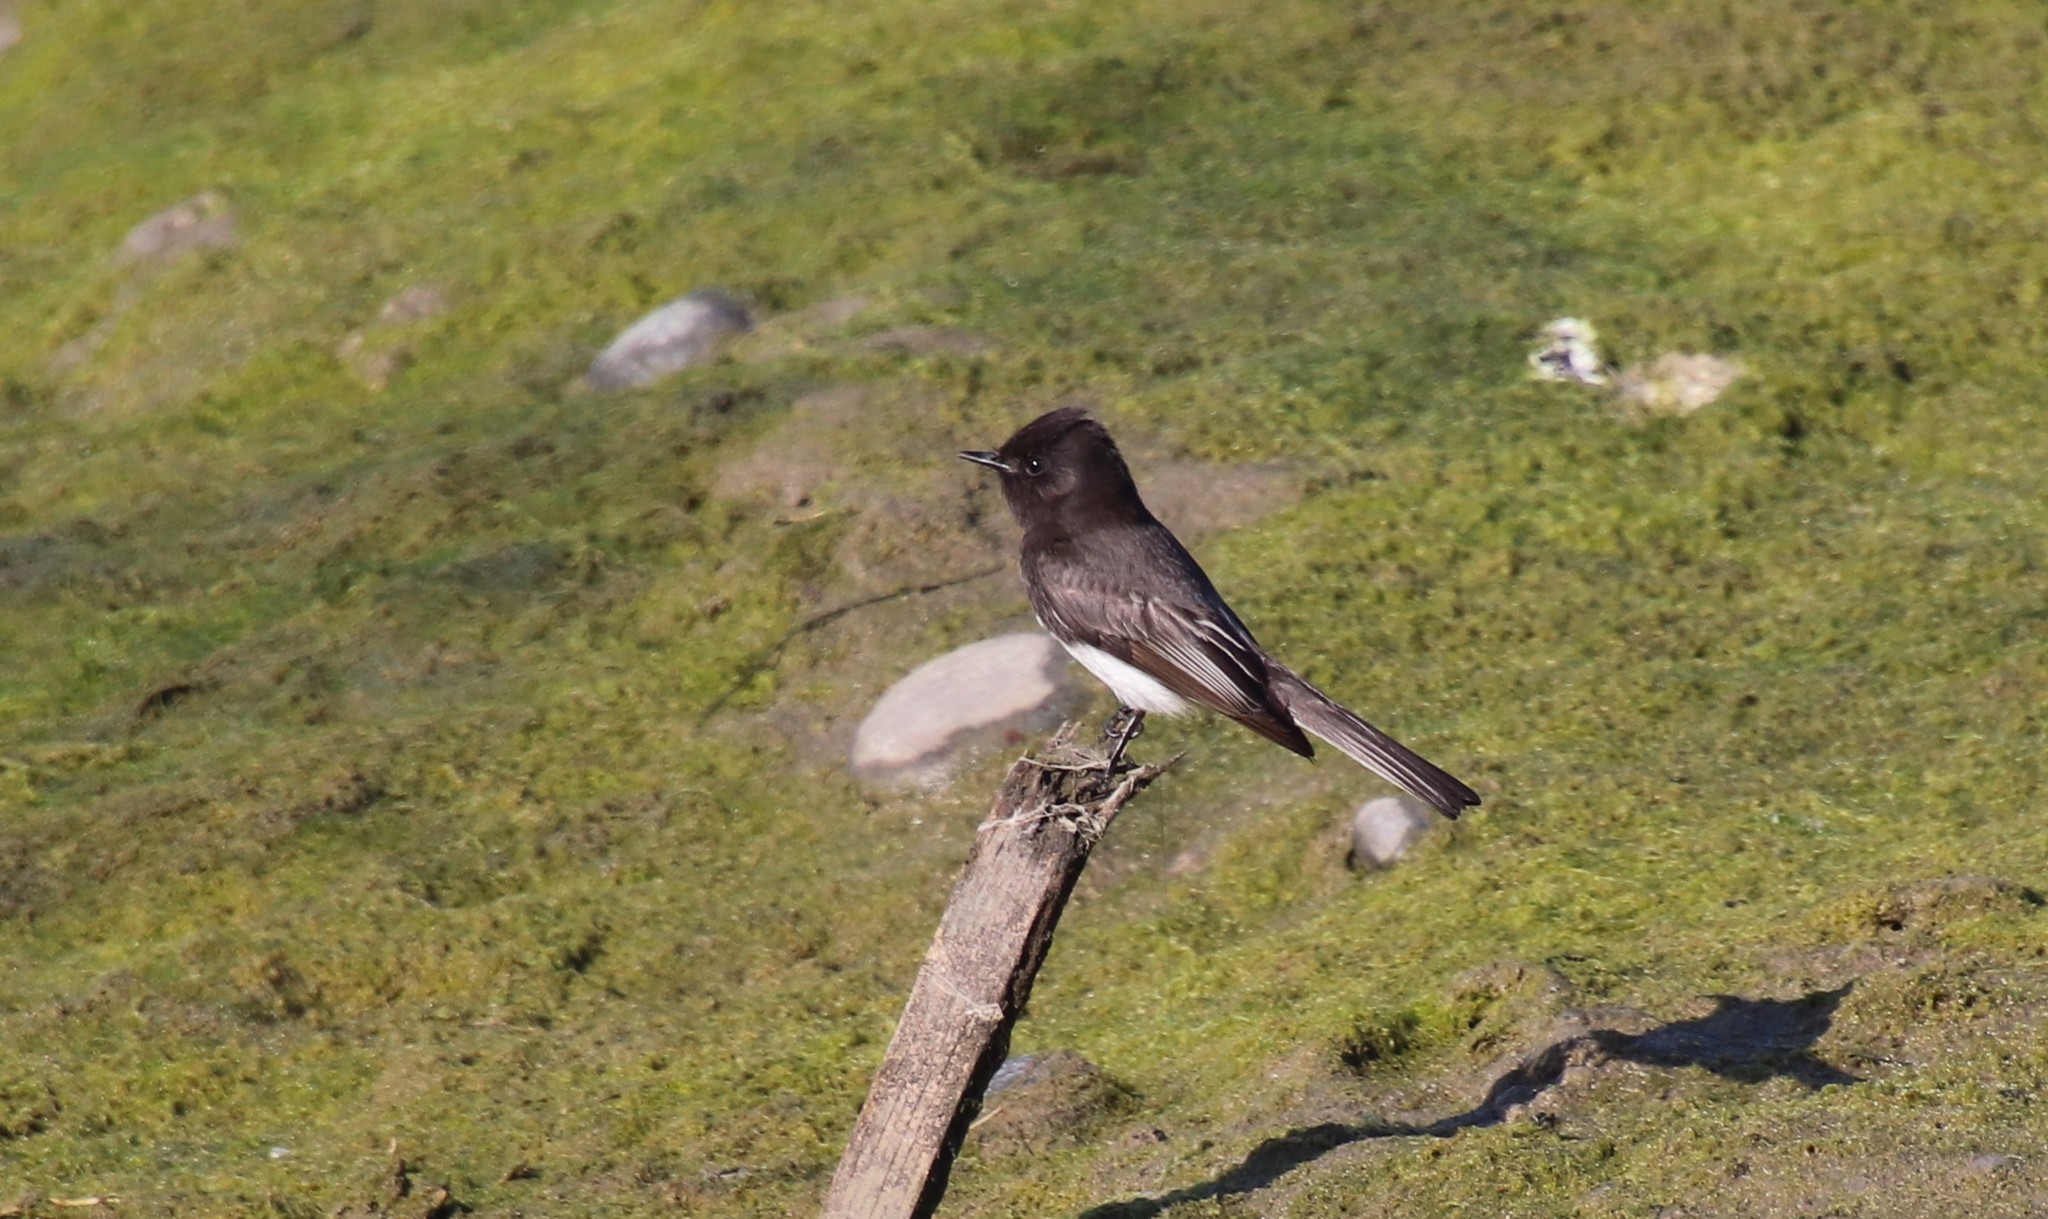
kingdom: Animalia
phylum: Chordata
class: Aves
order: Passeriformes
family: Tyrannidae
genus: Sayornis
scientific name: Sayornis nigricans
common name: Black phoebe
